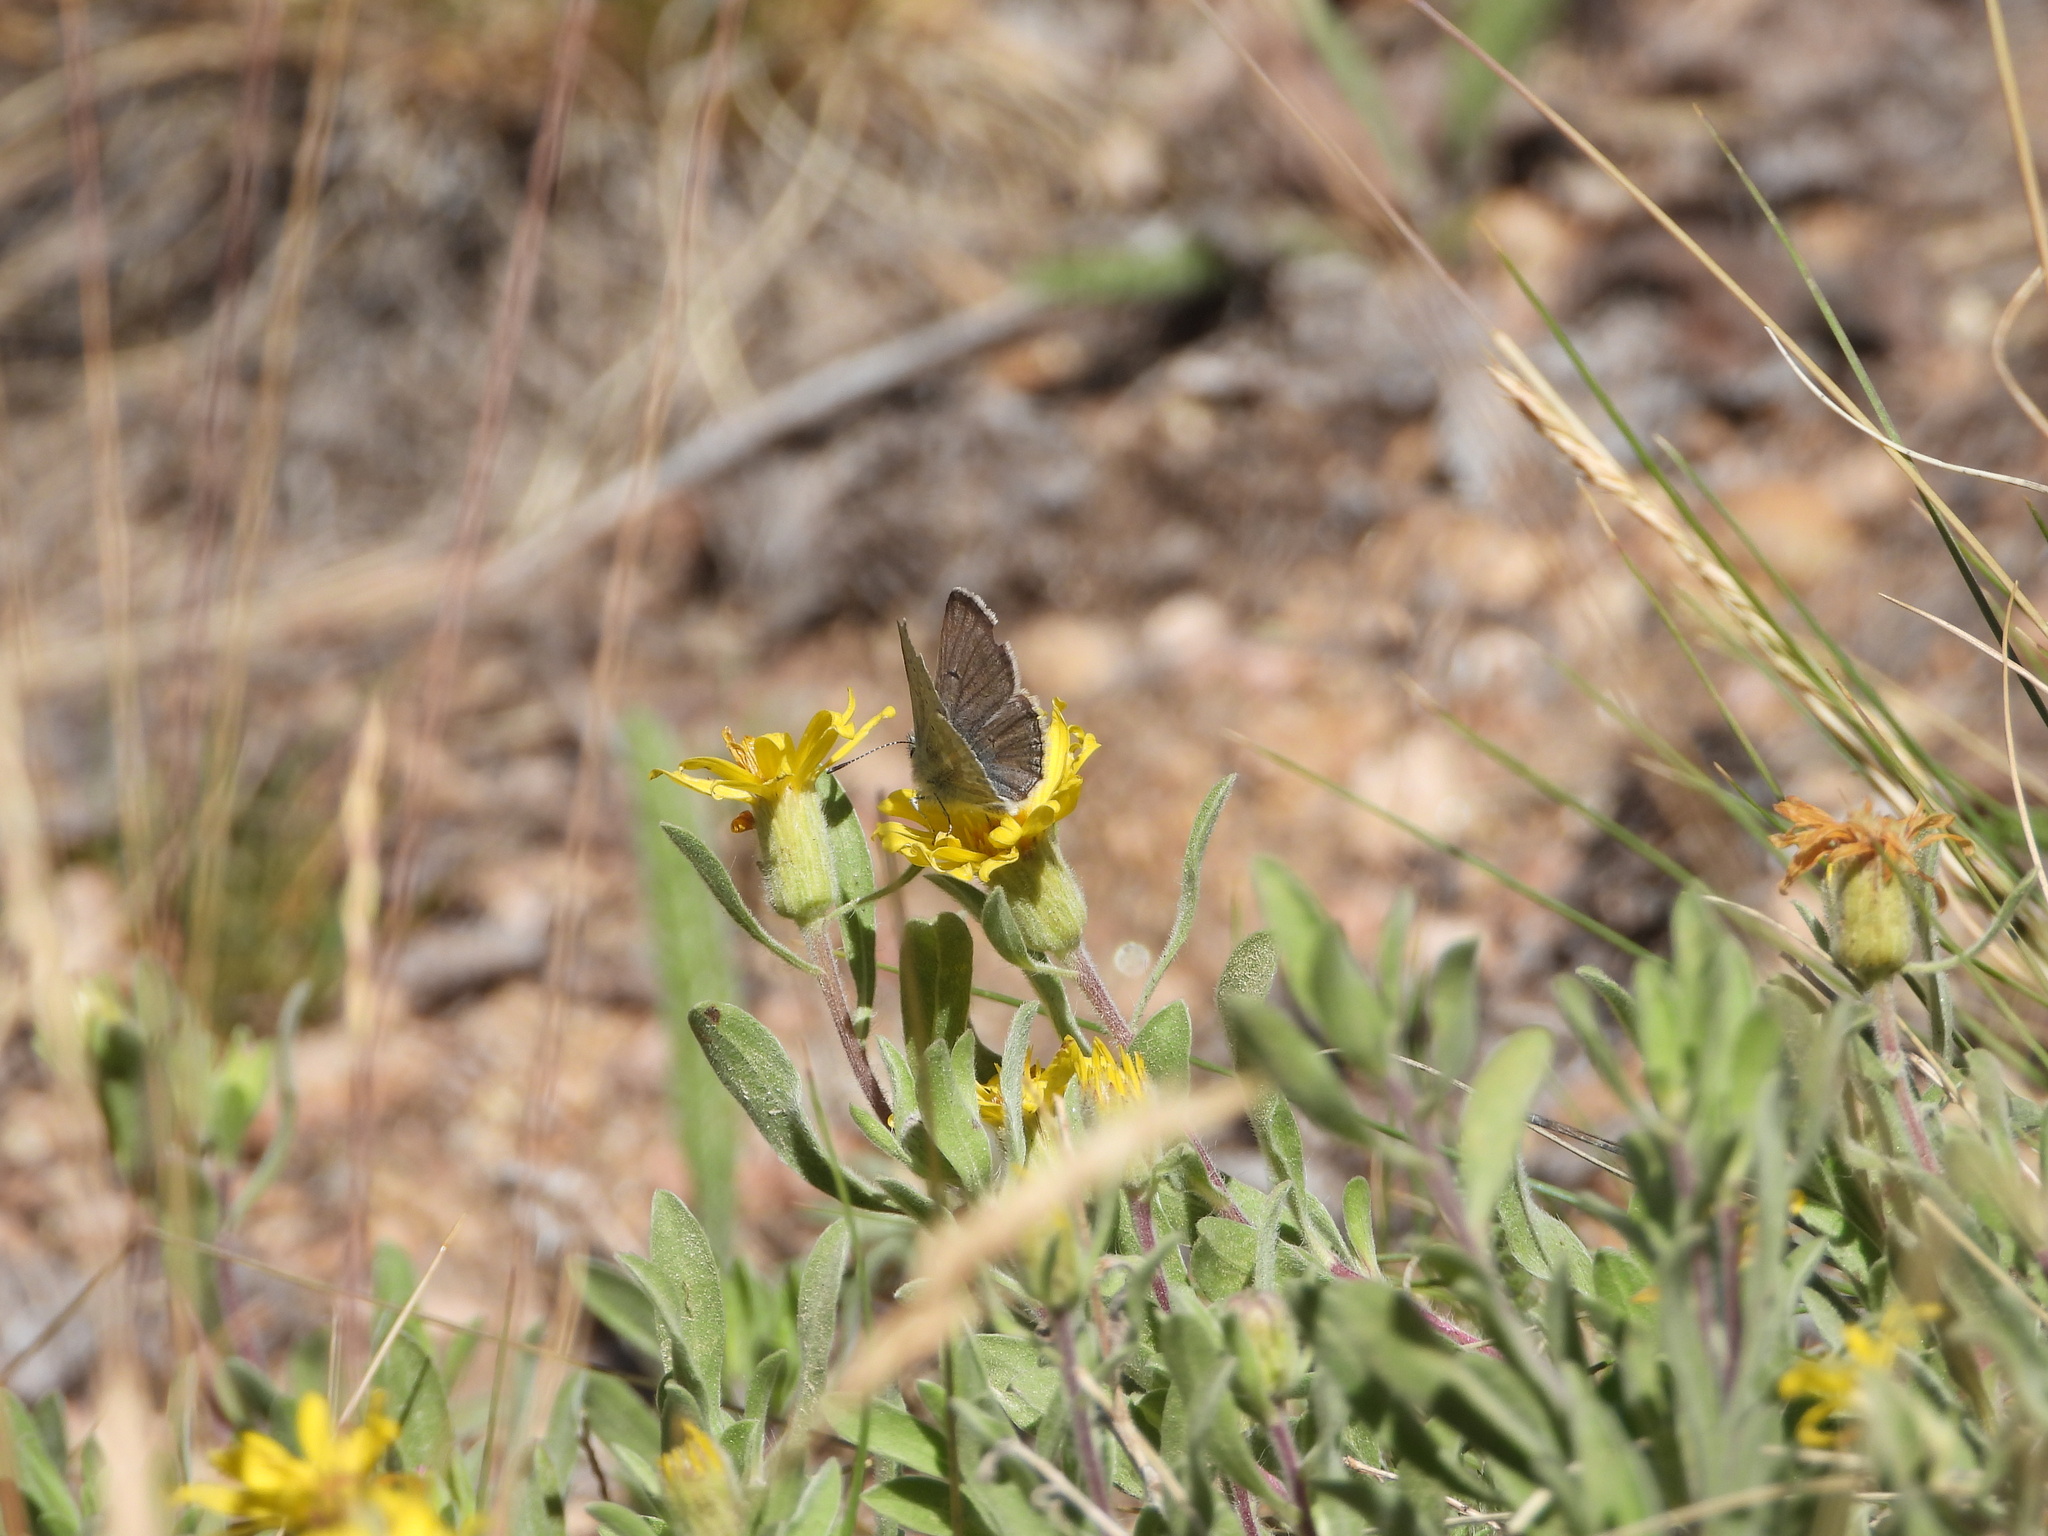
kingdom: Animalia
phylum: Arthropoda
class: Insecta
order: Lepidoptera
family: Lycaenidae
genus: Agriades
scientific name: Agriades glandon
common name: Glandon blue
